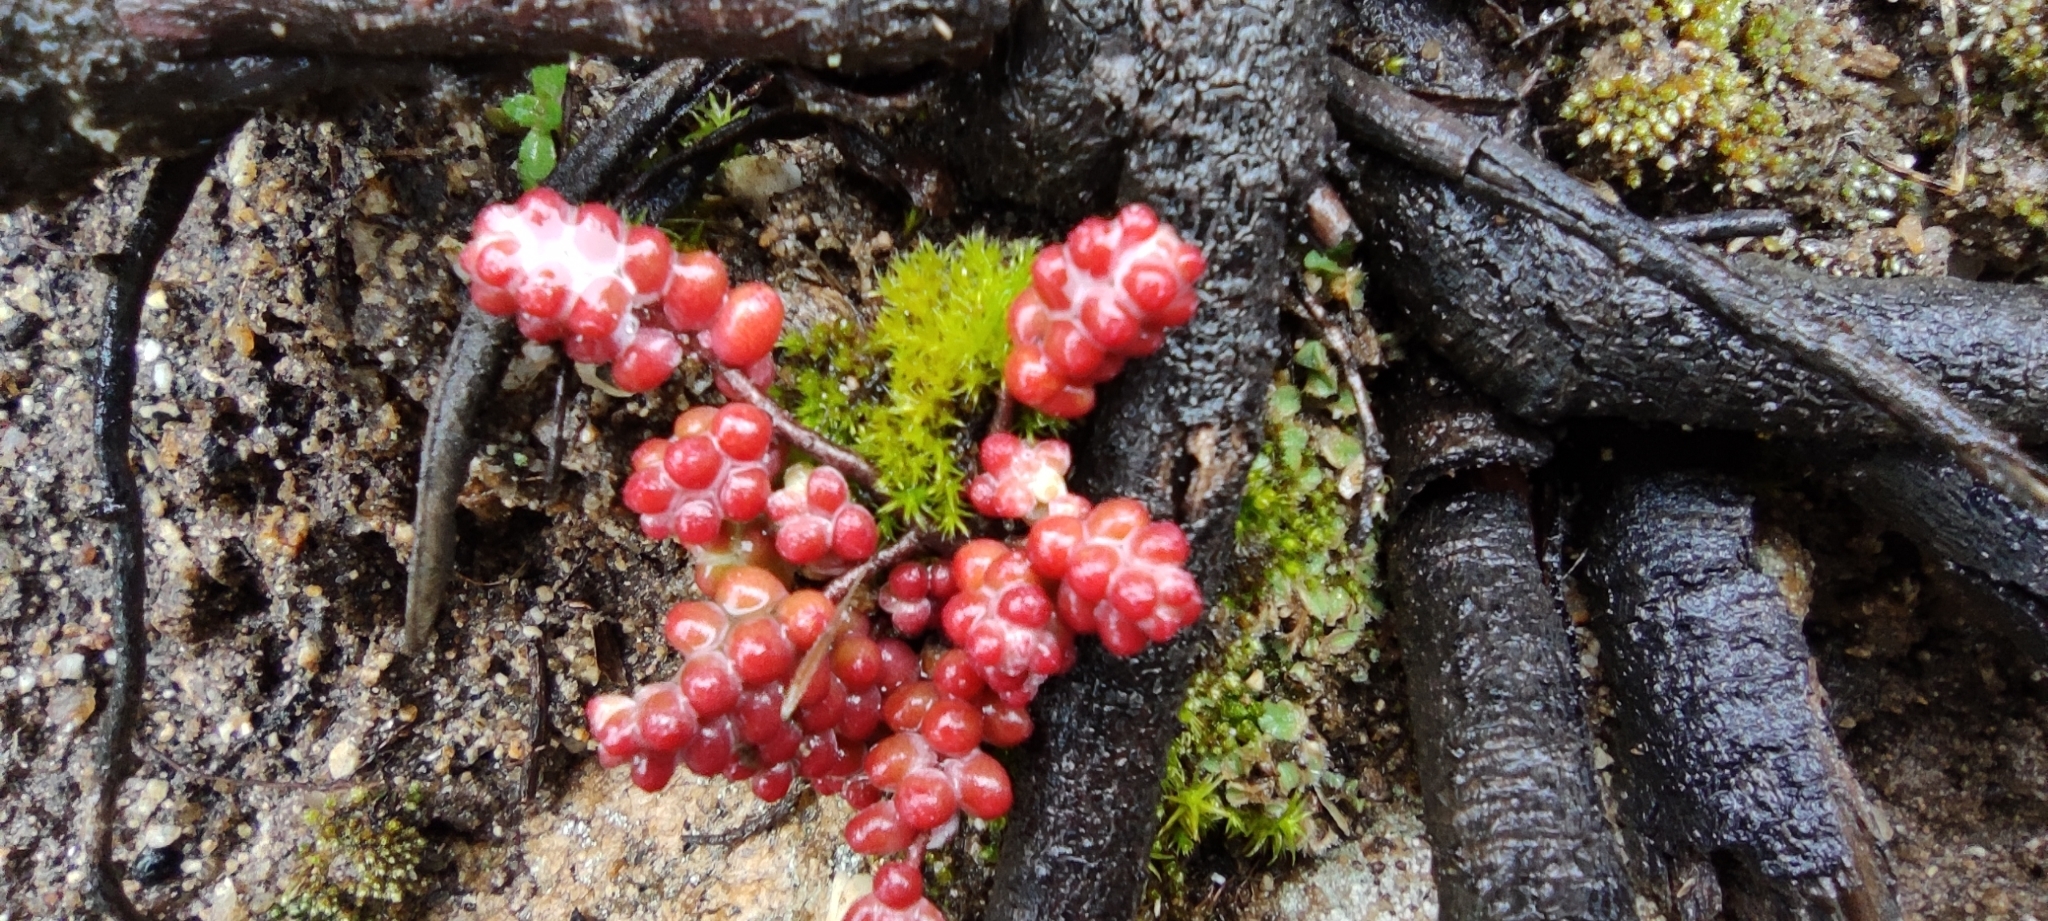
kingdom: Plantae
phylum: Tracheophyta
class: Magnoliopsida
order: Saxifragales
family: Crassulaceae
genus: Sedum
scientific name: Sedum brevifolium
